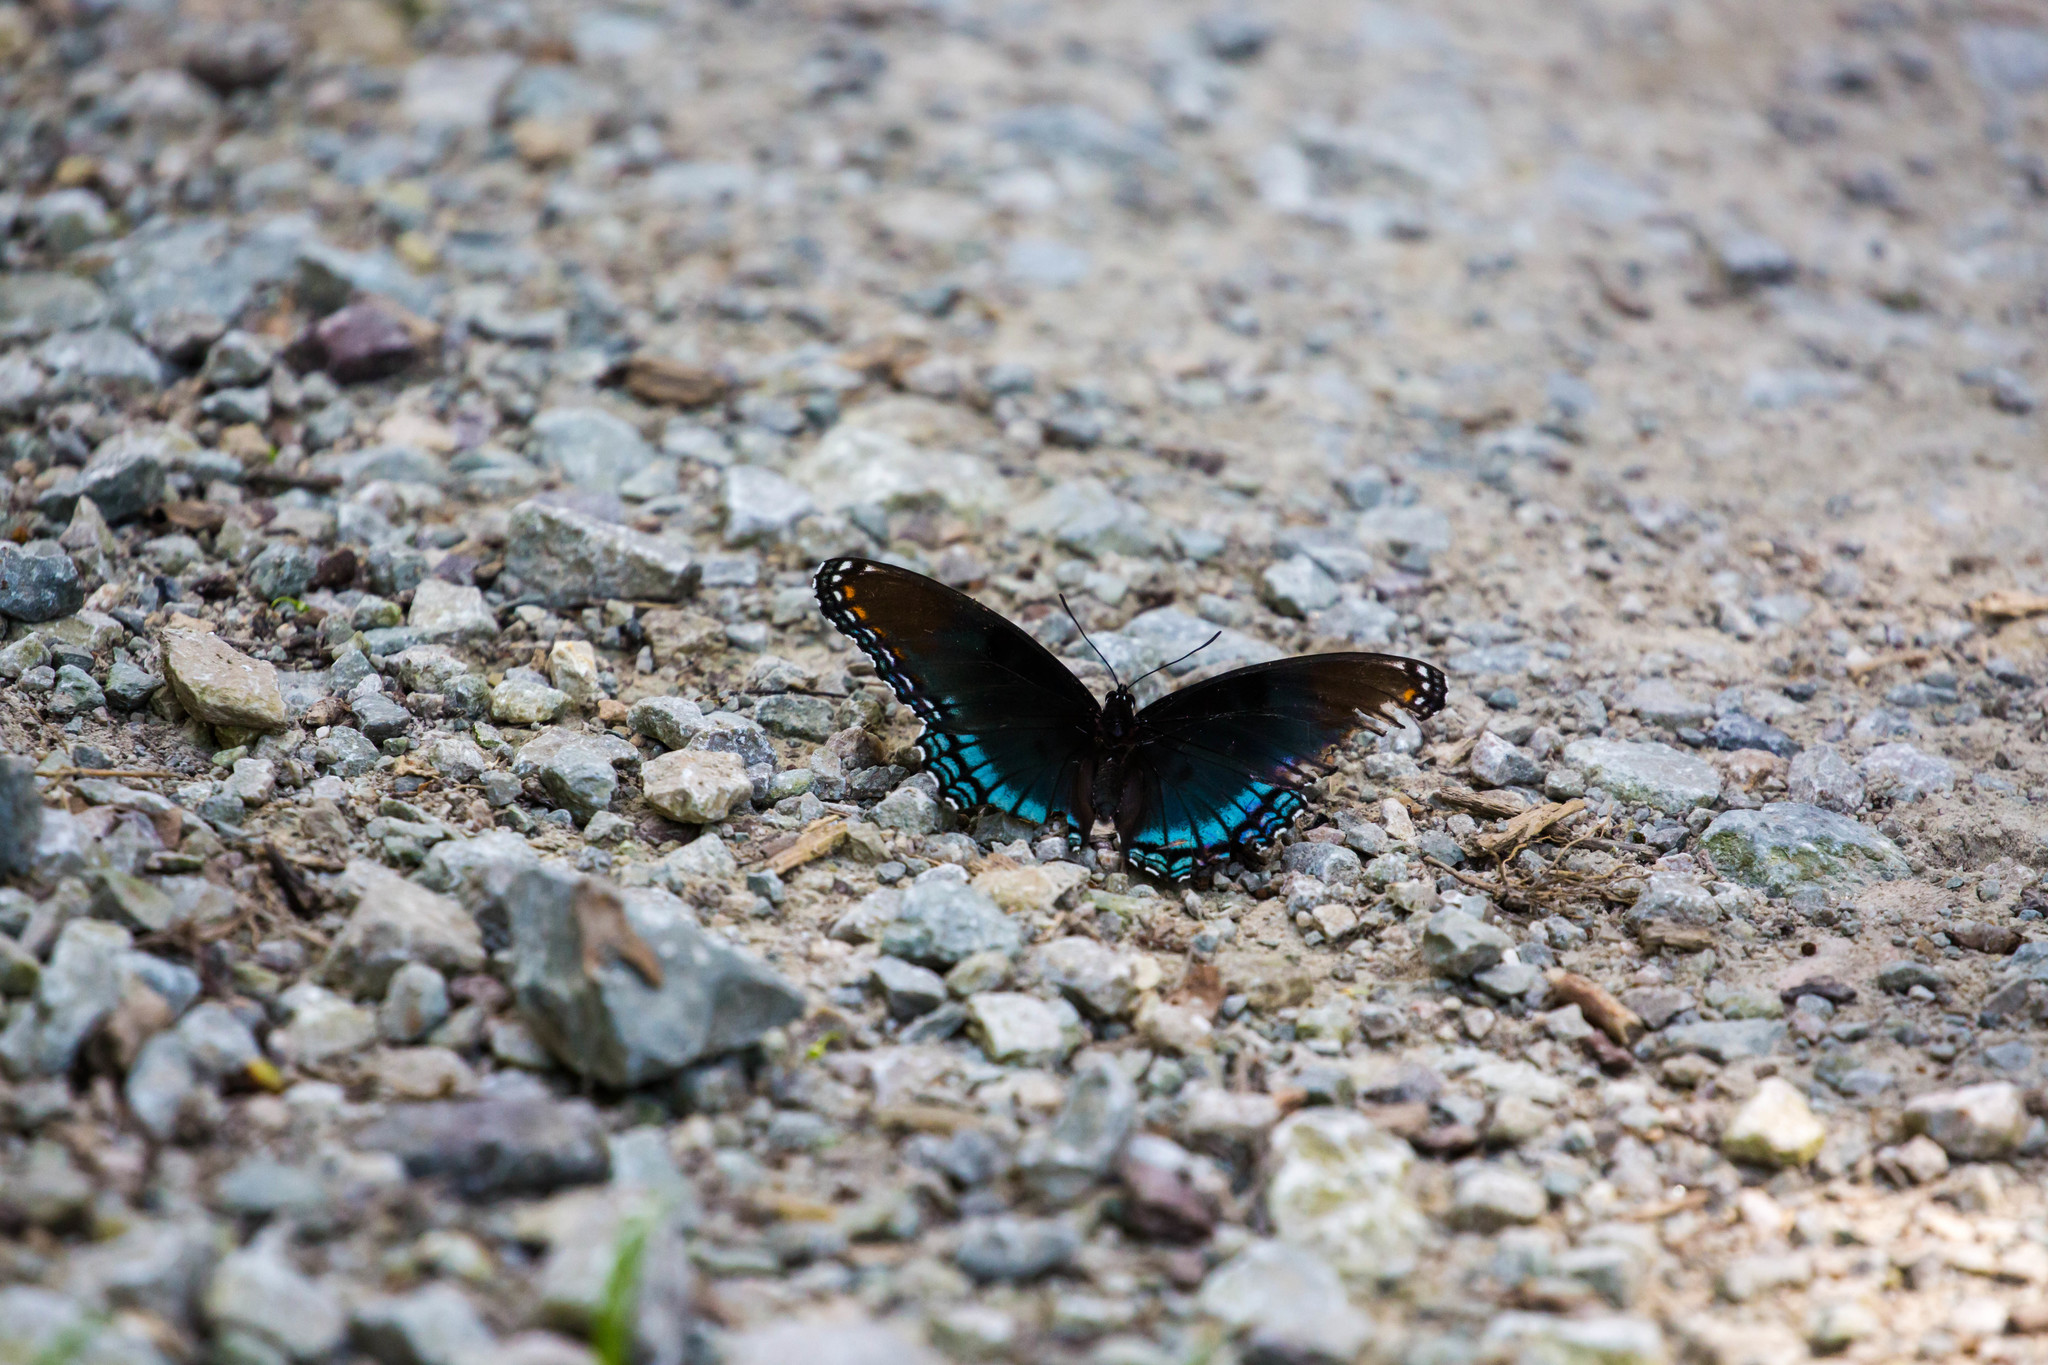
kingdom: Animalia
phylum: Arthropoda
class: Insecta
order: Lepidoptera
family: Nymphalidae
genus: Limenitis
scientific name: Limenitis astyanax
